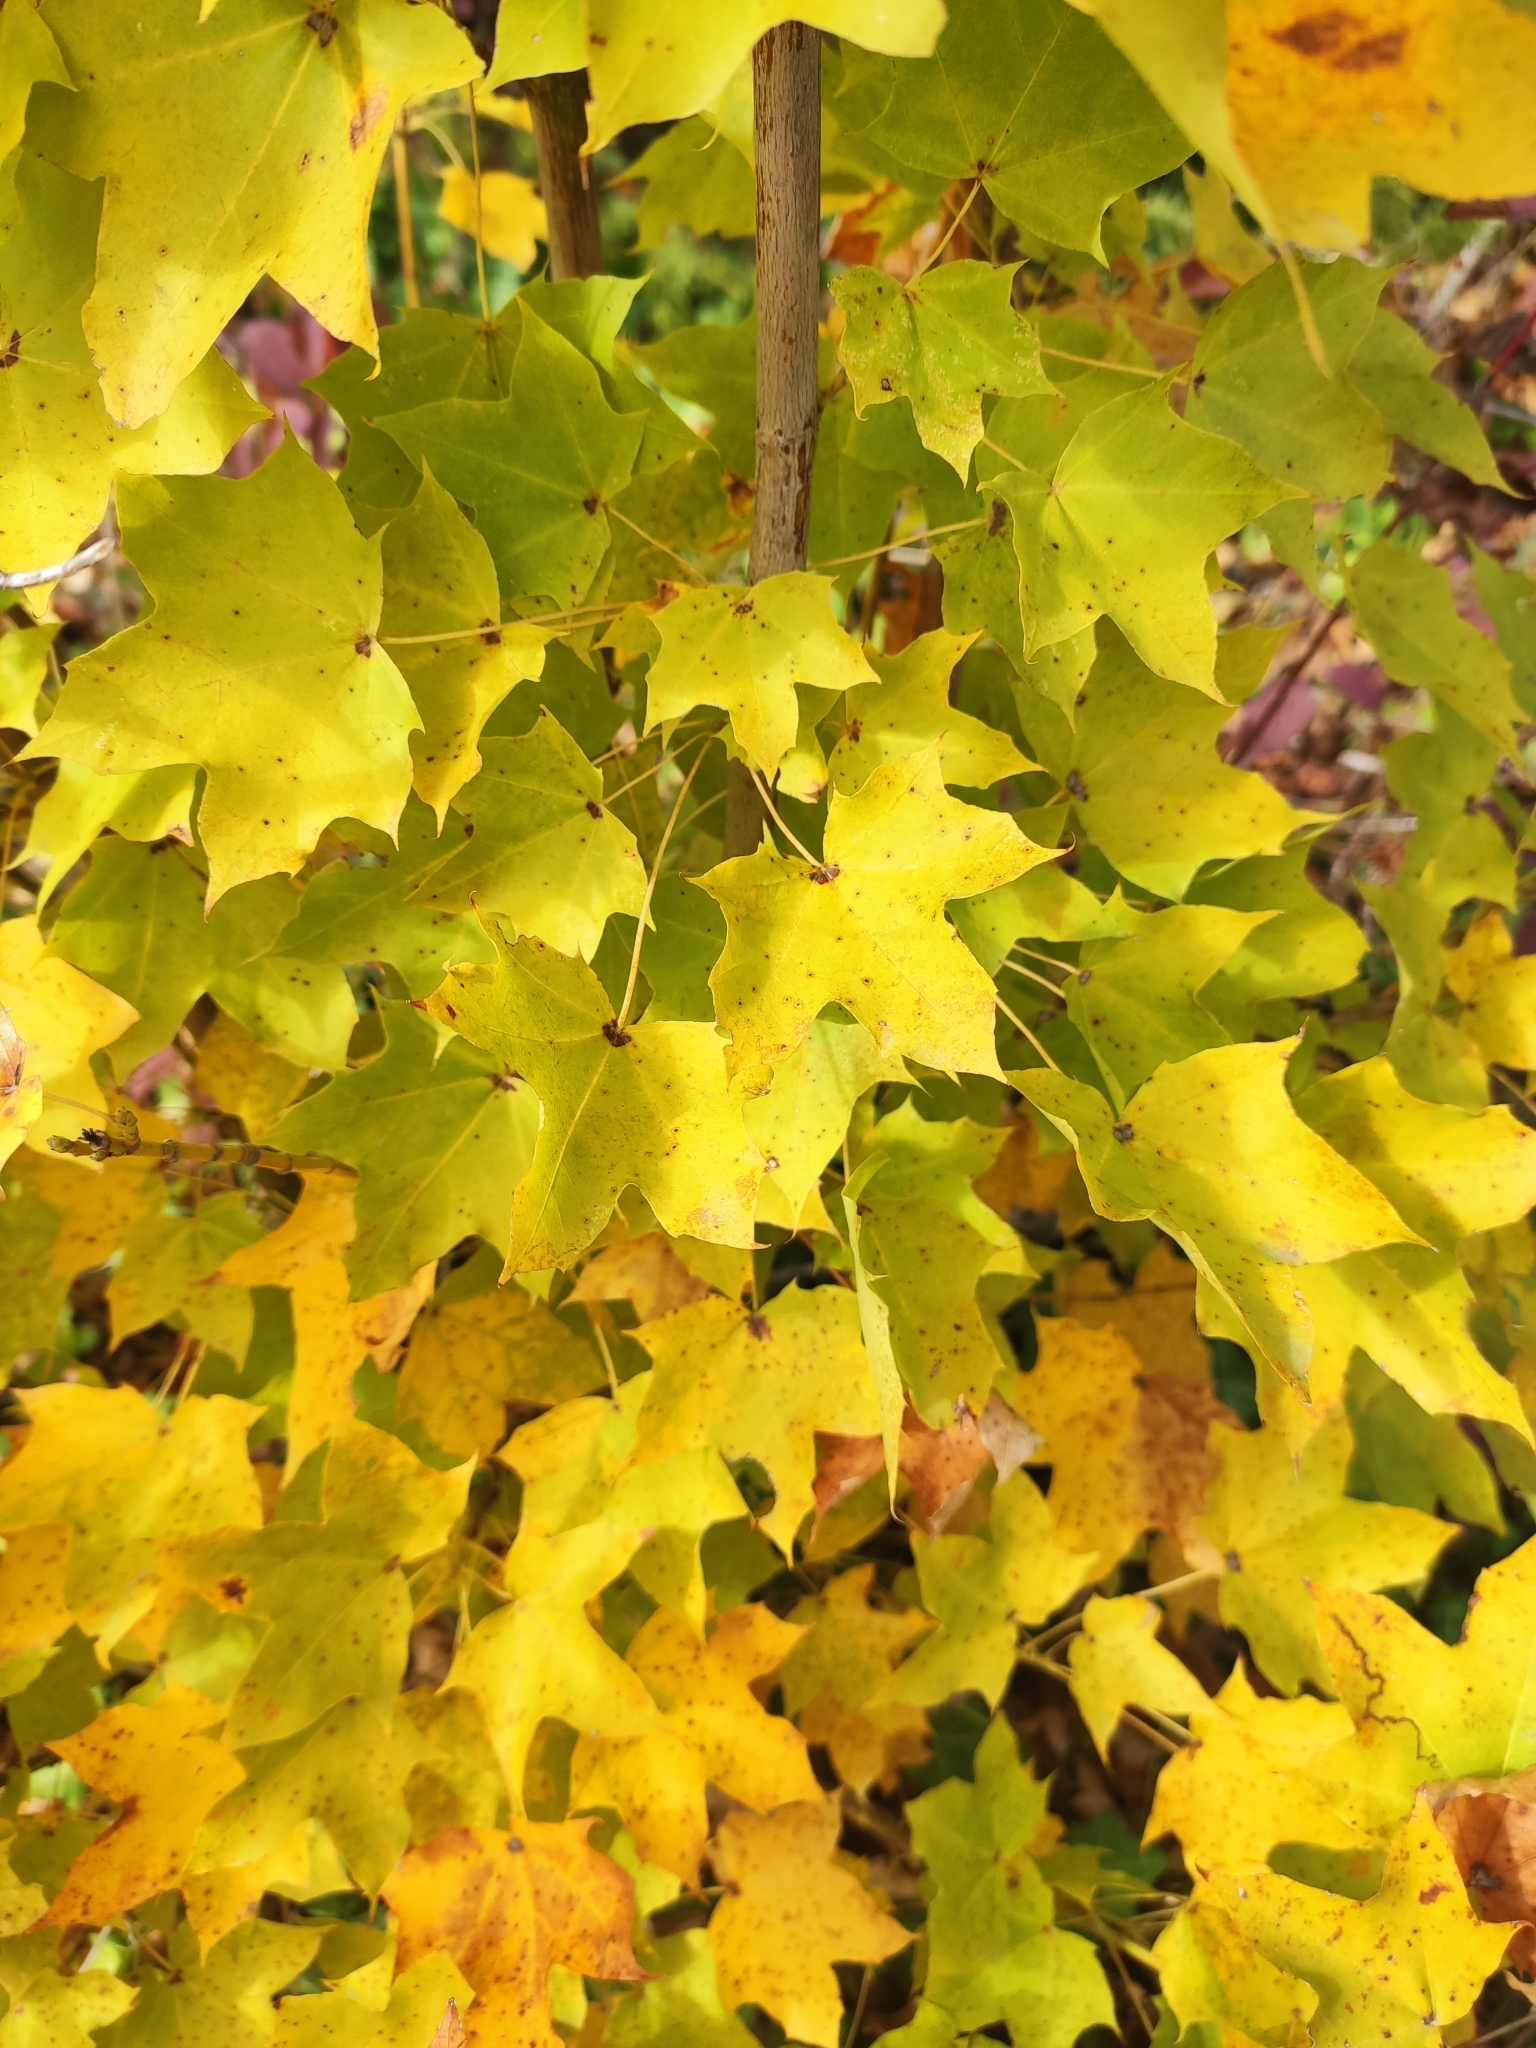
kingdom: Plantae
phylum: Tracheophyta
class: Magnoliopsida
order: Sapindales
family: Sapindaceae
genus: Acer
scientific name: Acer cappadocicum
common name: Cappadocian maple
